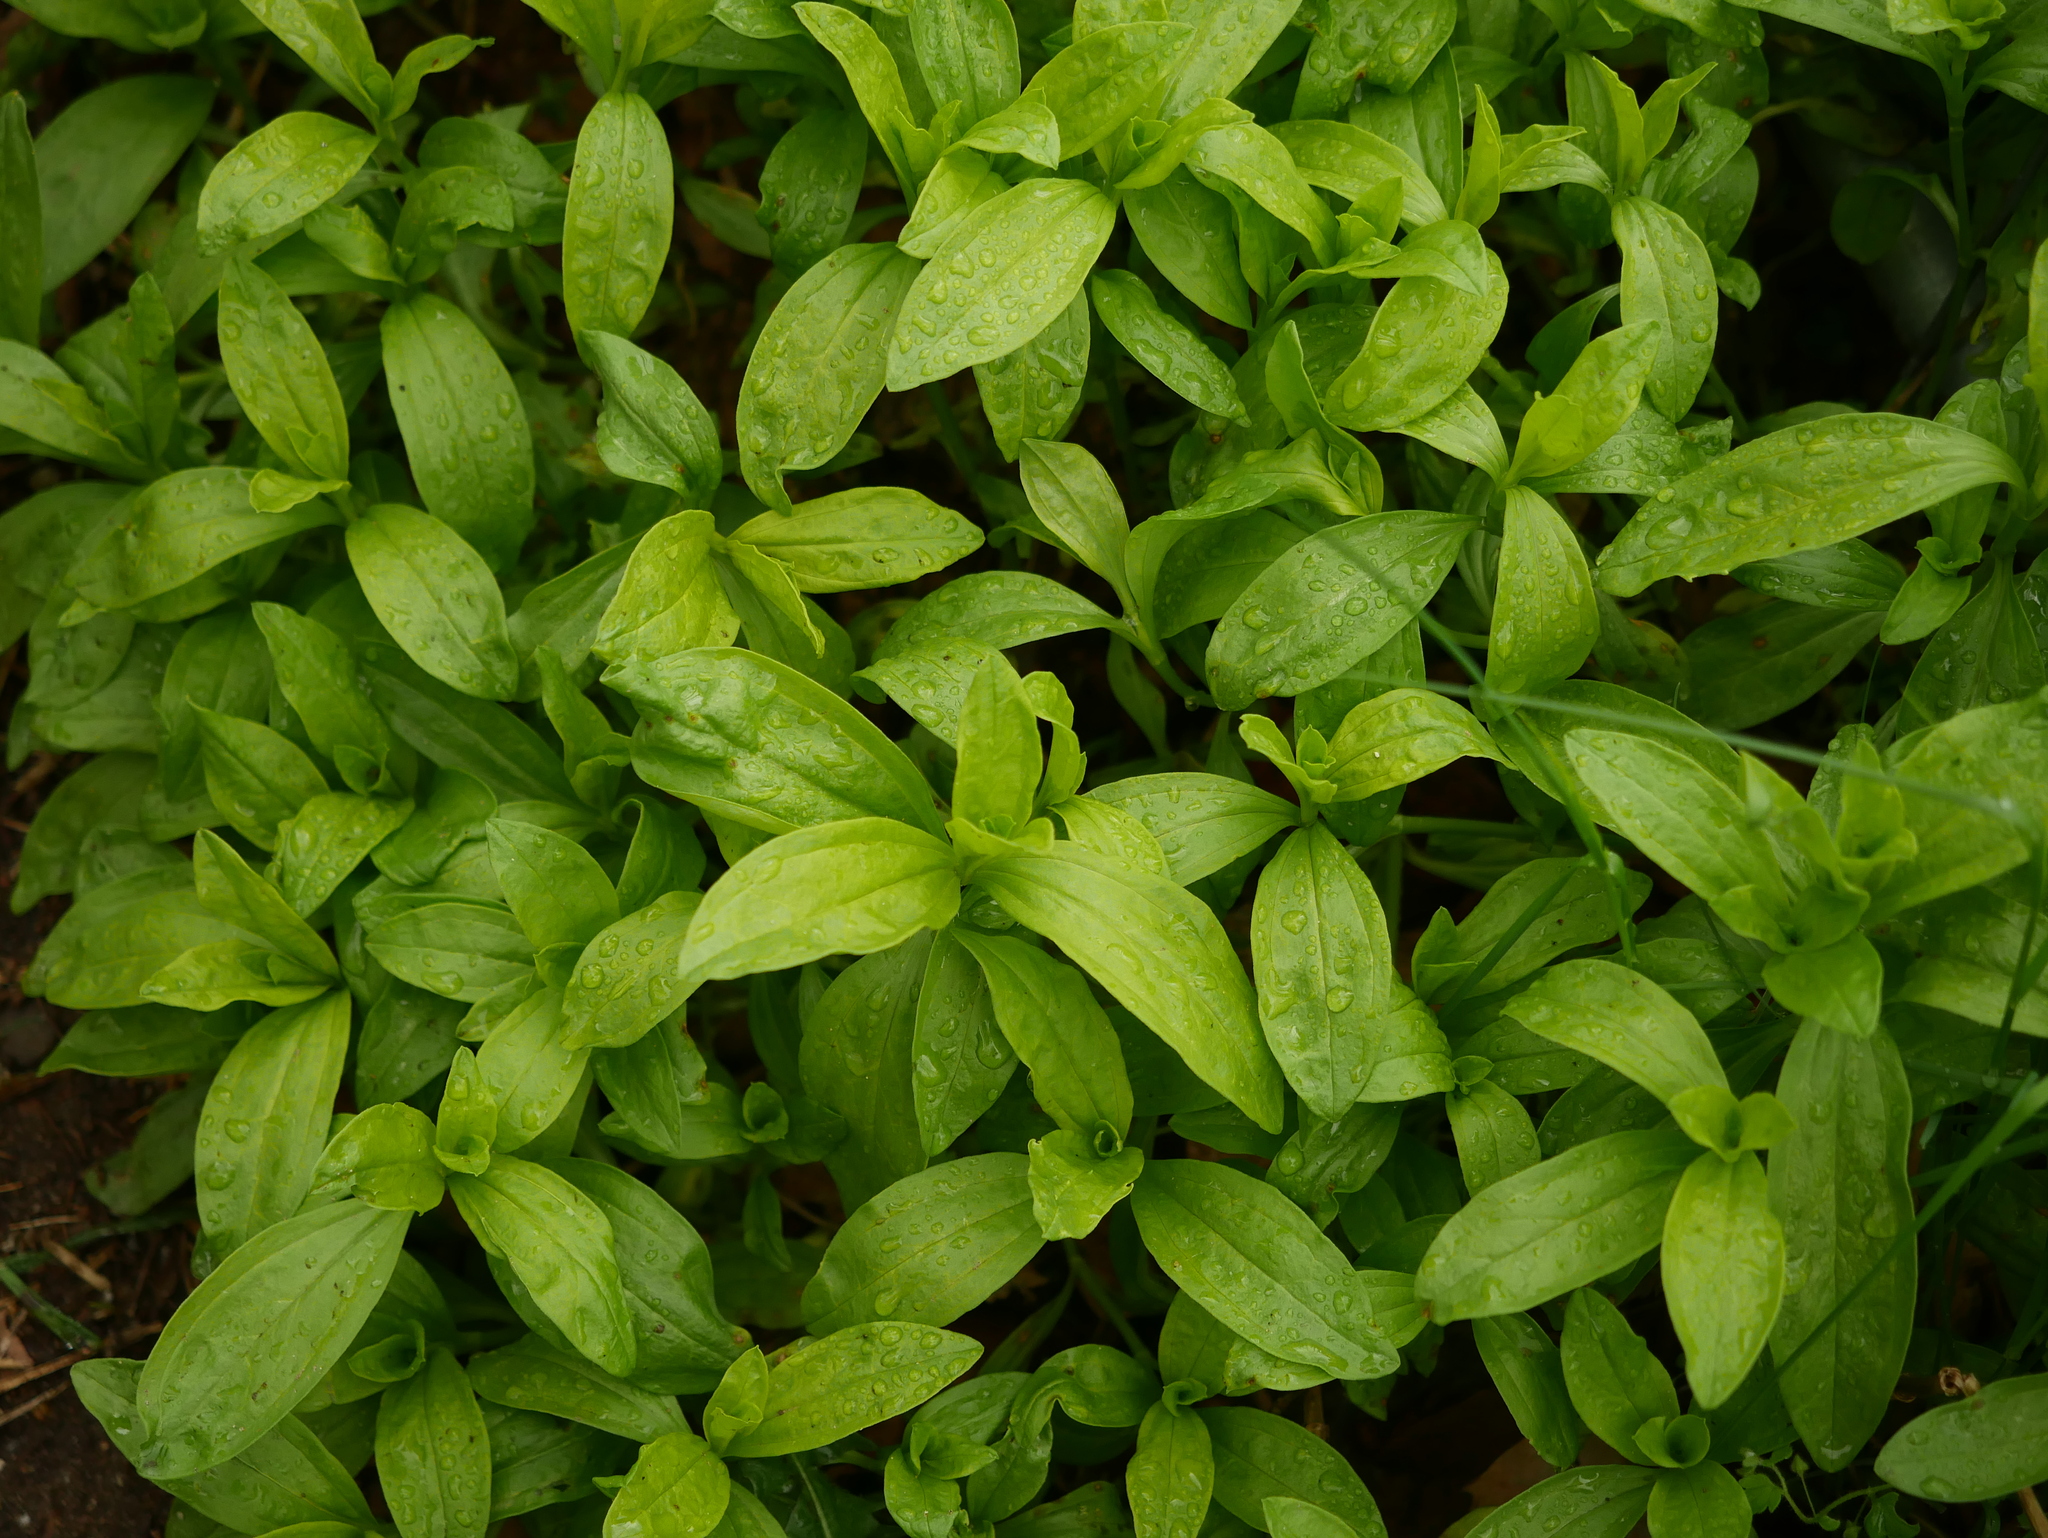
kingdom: Plantae
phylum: Tracheophyta
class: Magnoliopsida
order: Caryophyllales
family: Caryophyllaceae
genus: Saponaria
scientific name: Saponaria officinalis
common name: Soapwort
